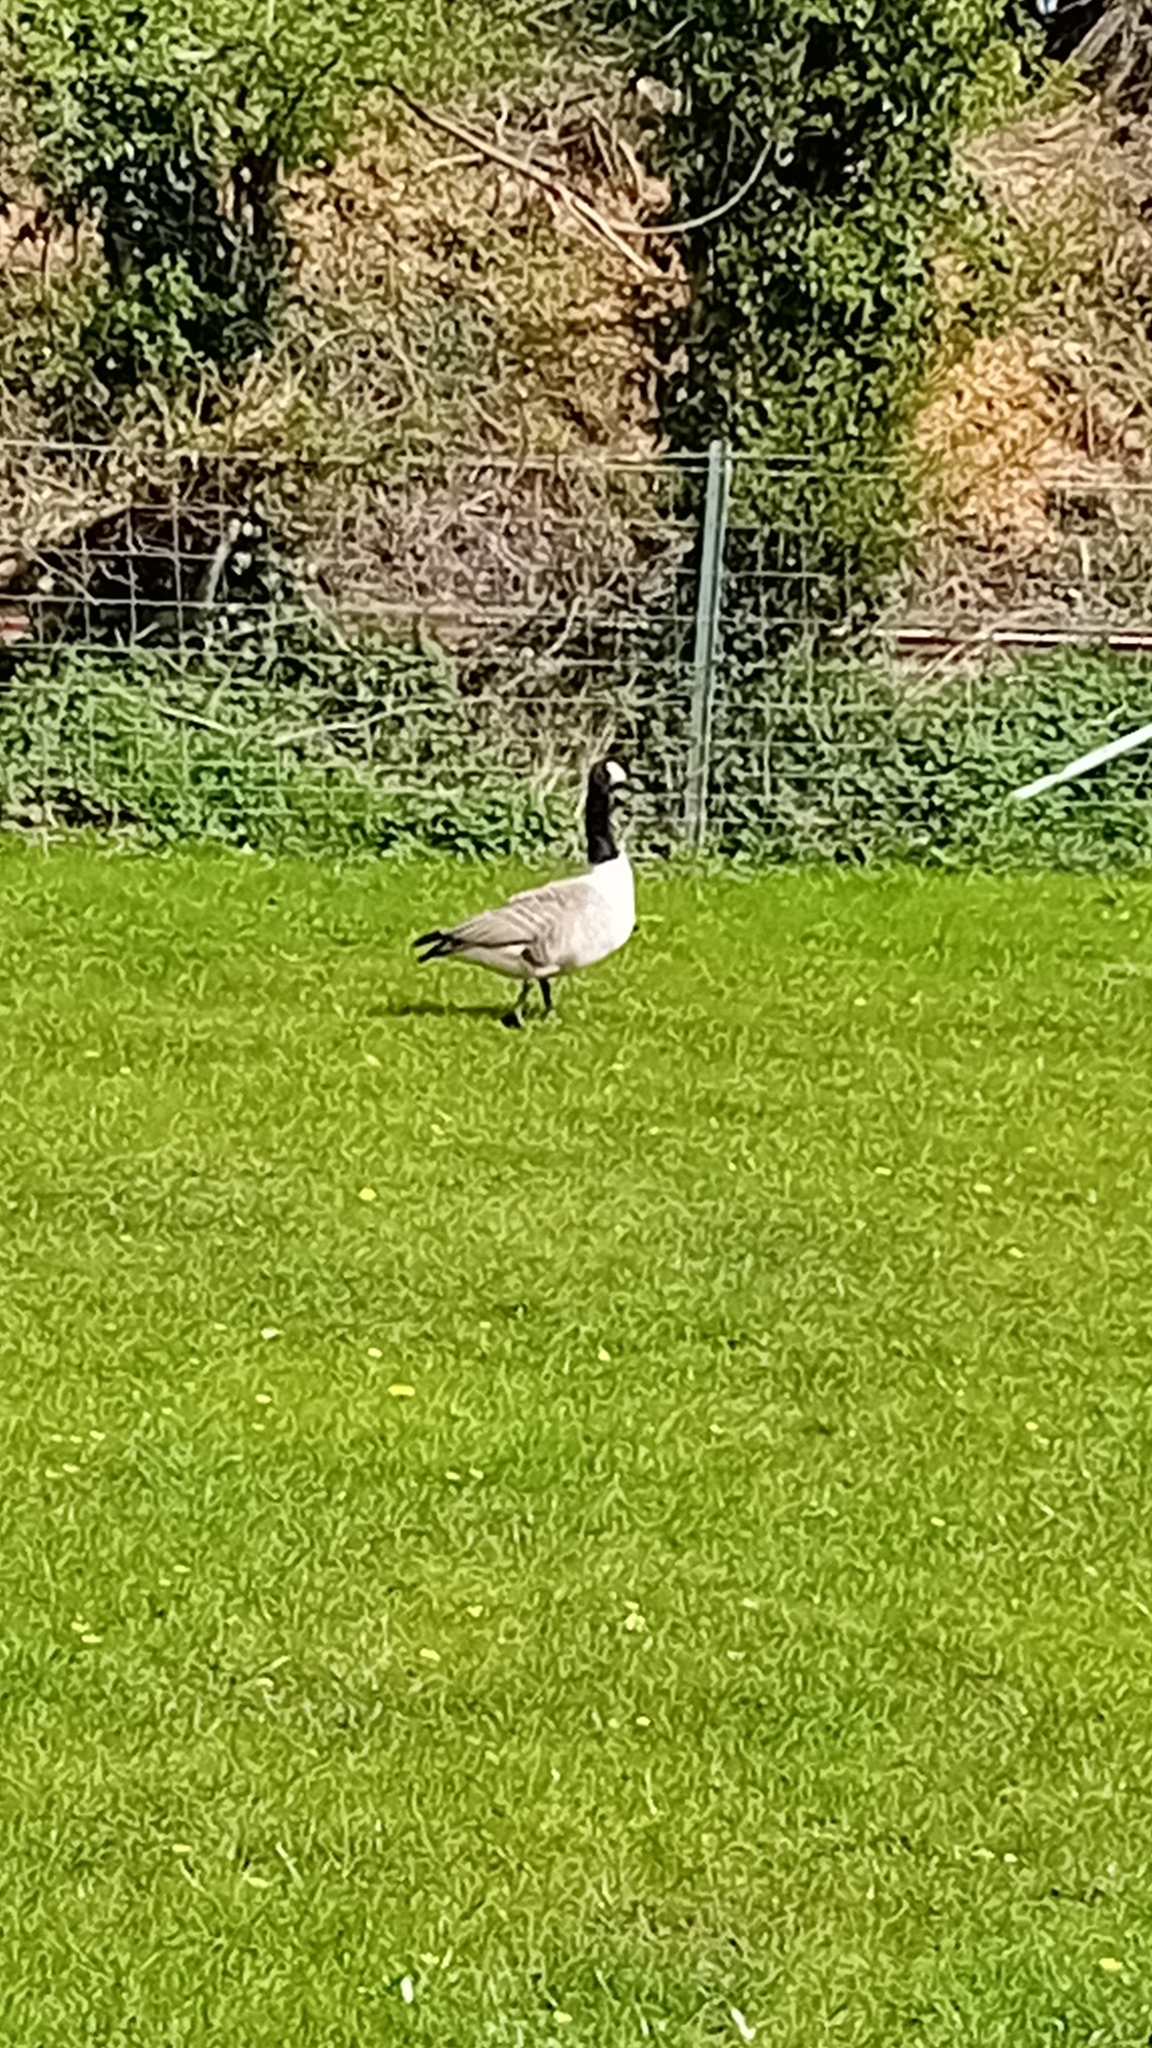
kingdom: Animalia
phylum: Chordata
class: Aves
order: Anseriformes
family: Anatidae
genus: Branta
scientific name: Branta canadensis
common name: Canada goose
